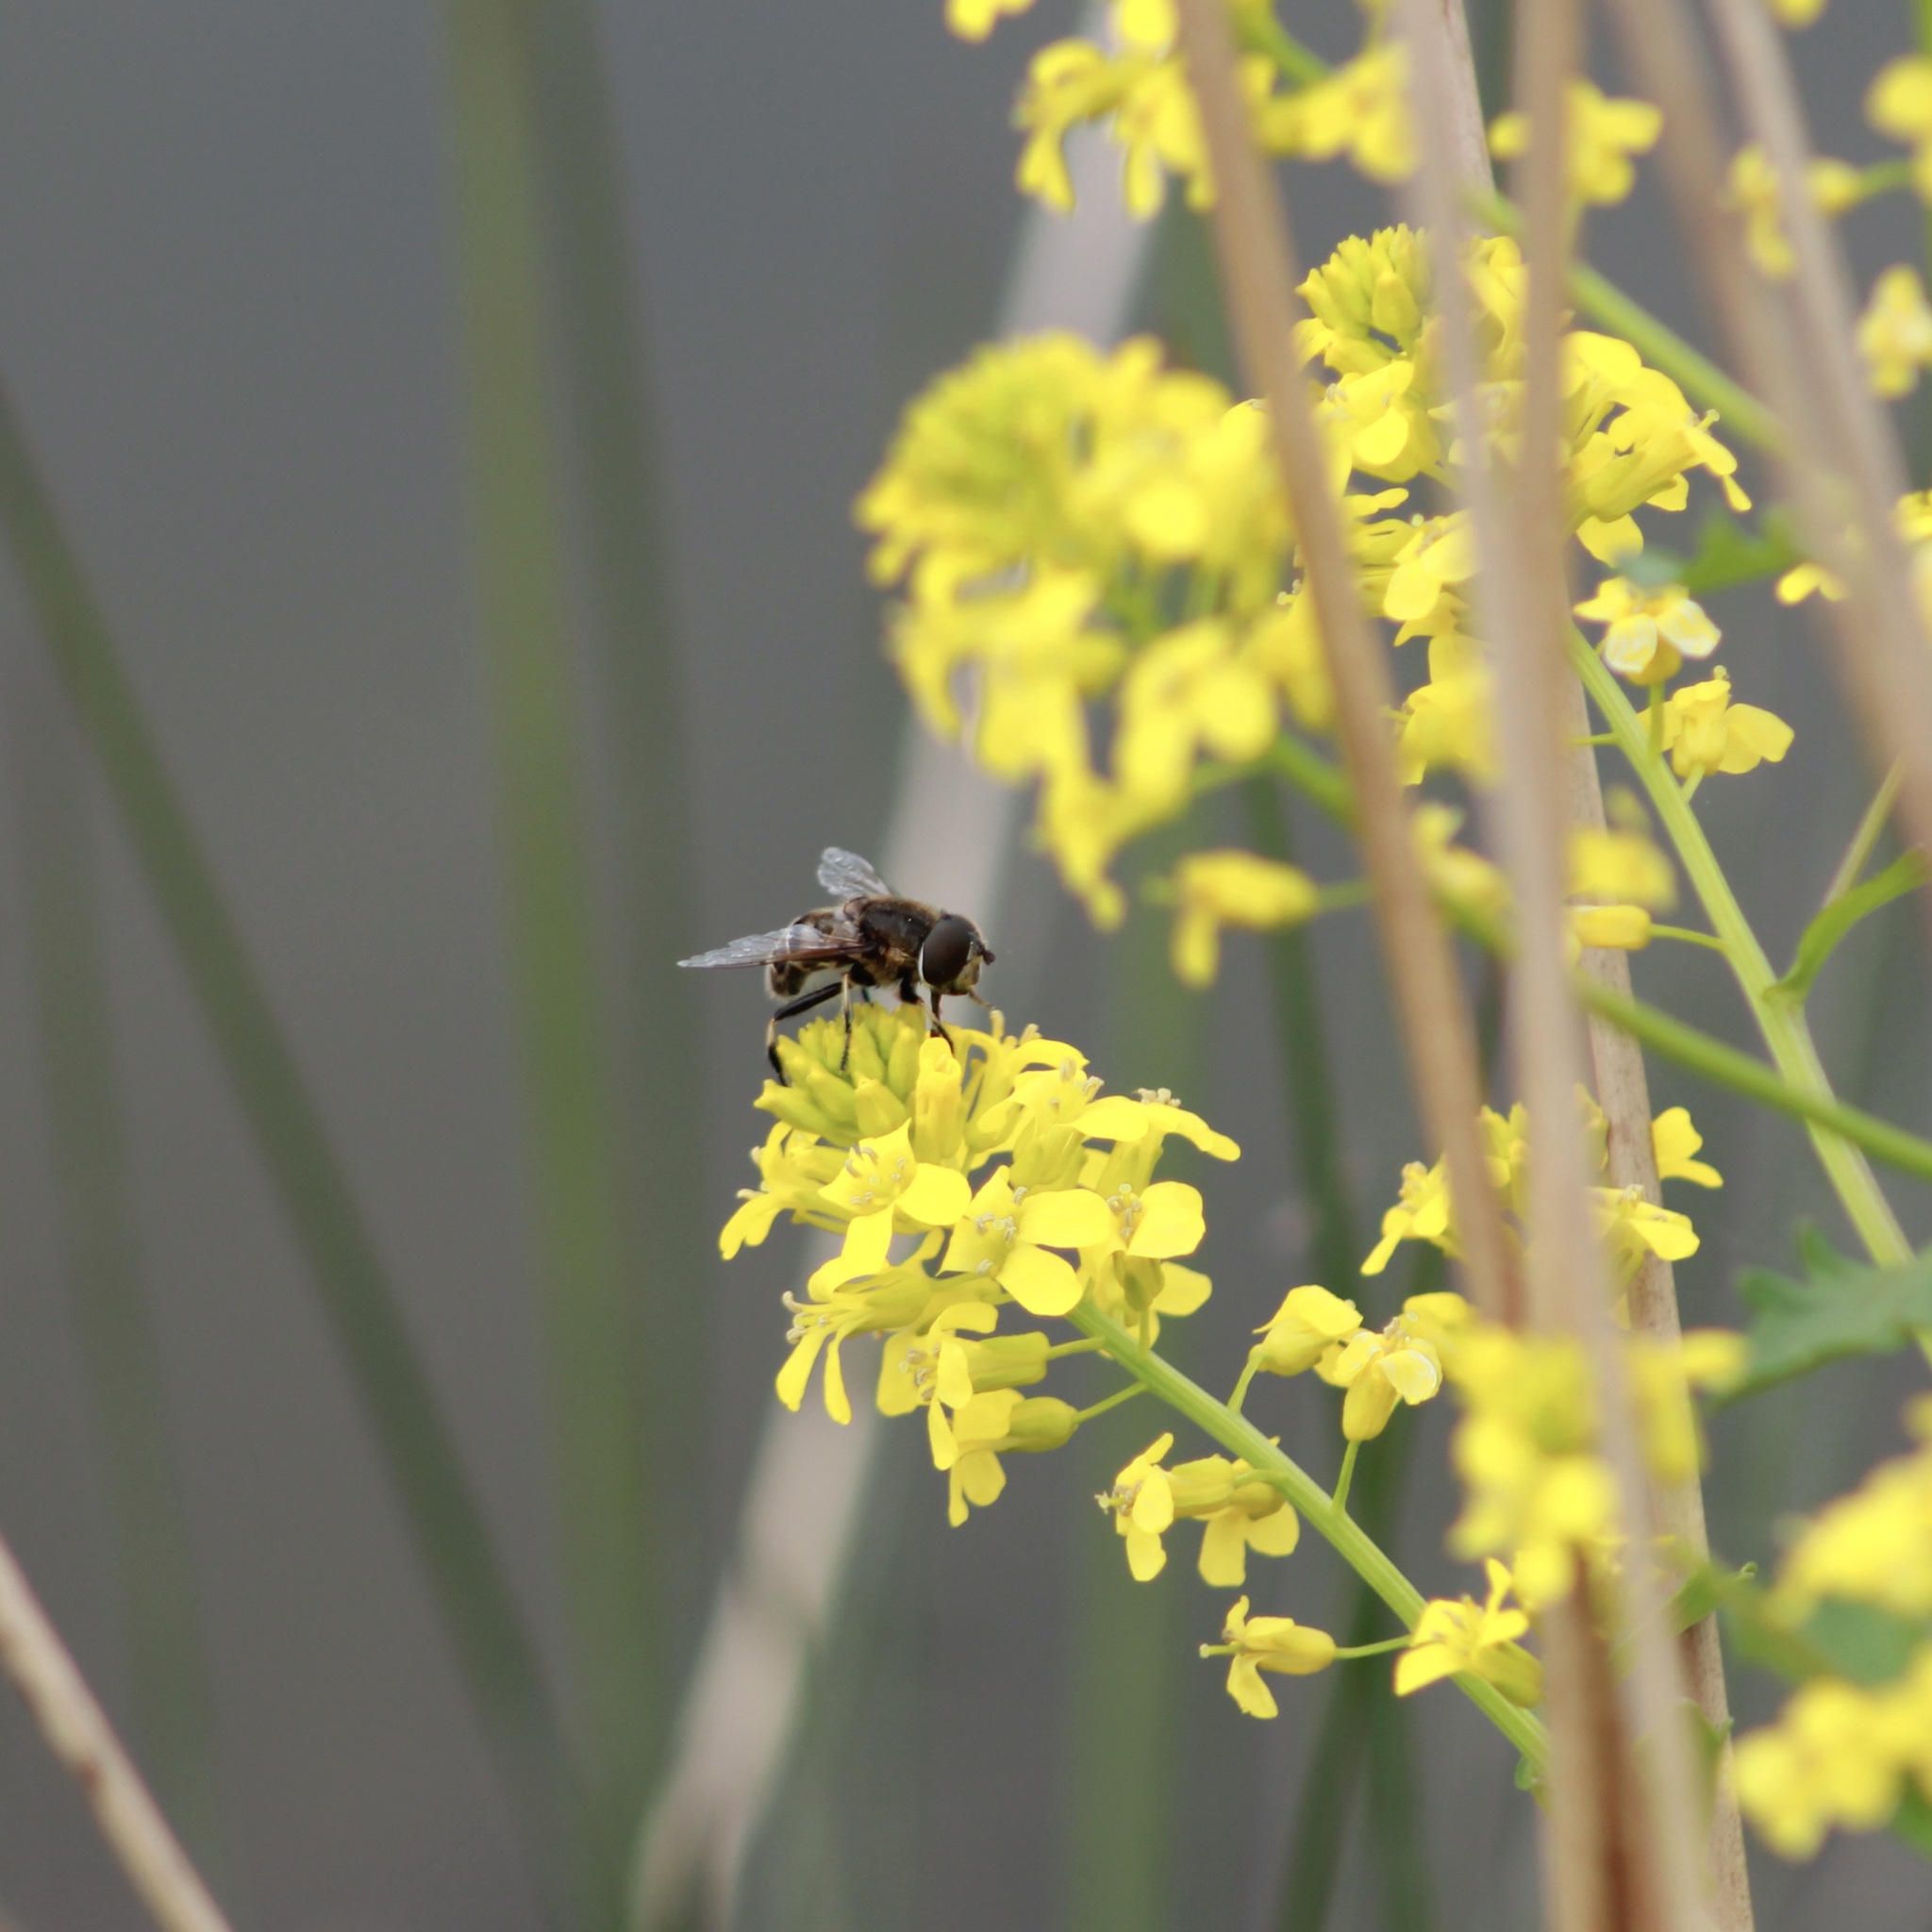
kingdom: Animalia
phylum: Arthropoda
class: Insecta
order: Diptera
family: Syrphidae
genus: Eristalis
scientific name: Eristalis dimidiata
